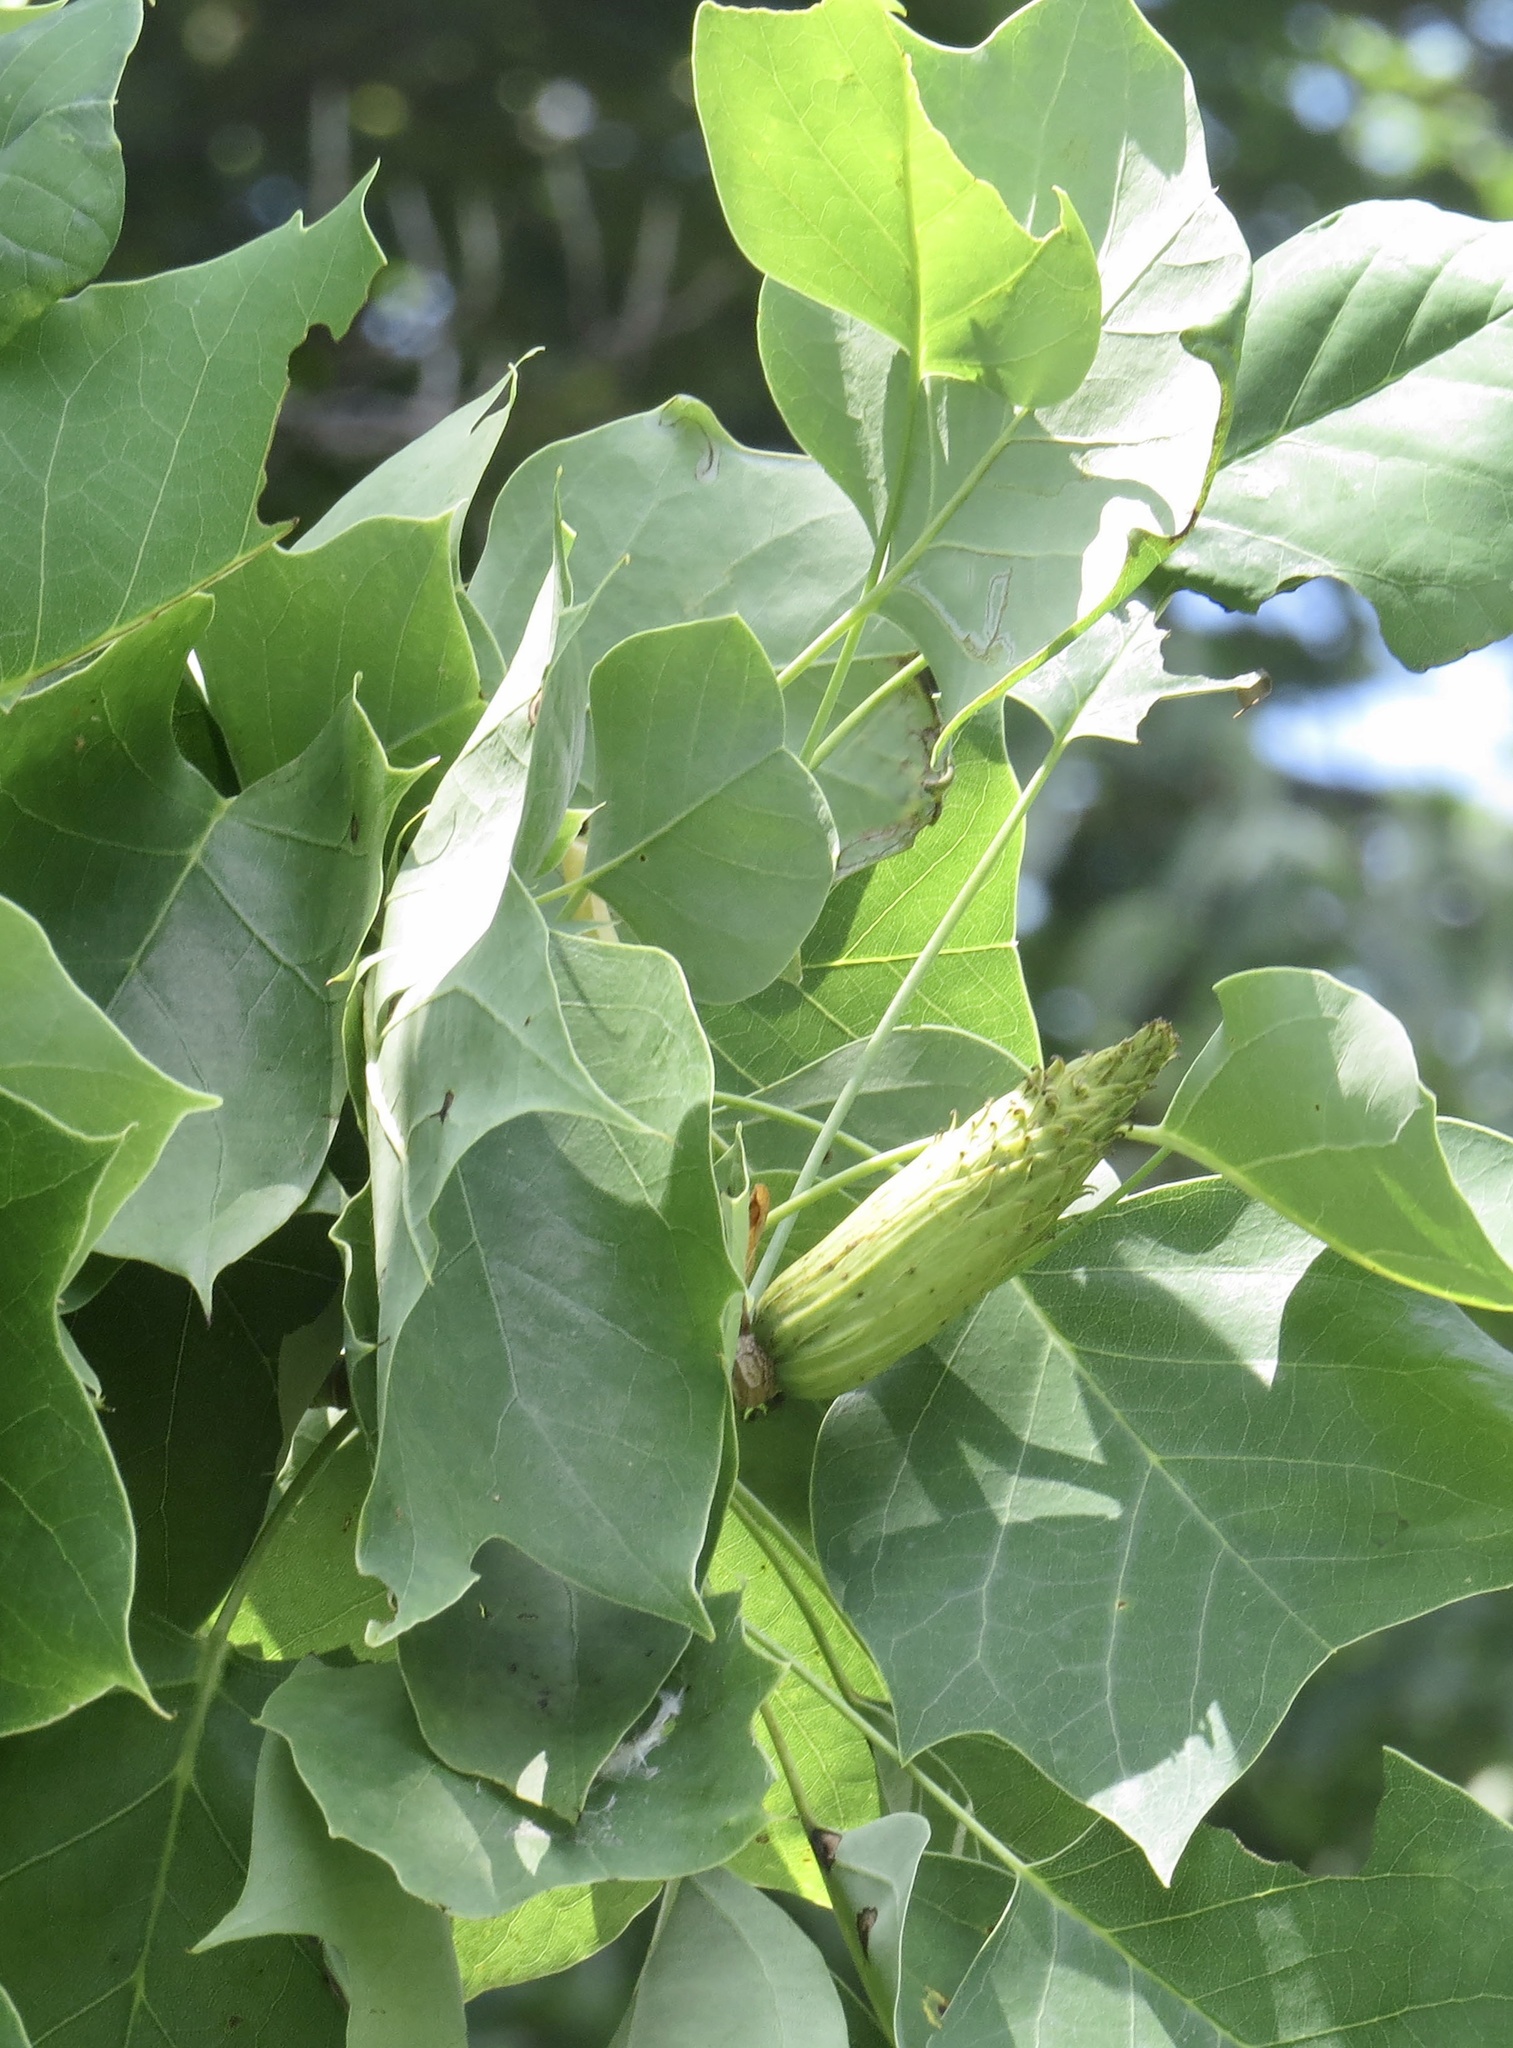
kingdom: Plantae
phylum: Tracheophyta
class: Magnoliopsida
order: Magnoliales
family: Magnoliaceae
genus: Liriodendron
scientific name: Liriodendron tulipifera
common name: Tulip tree
